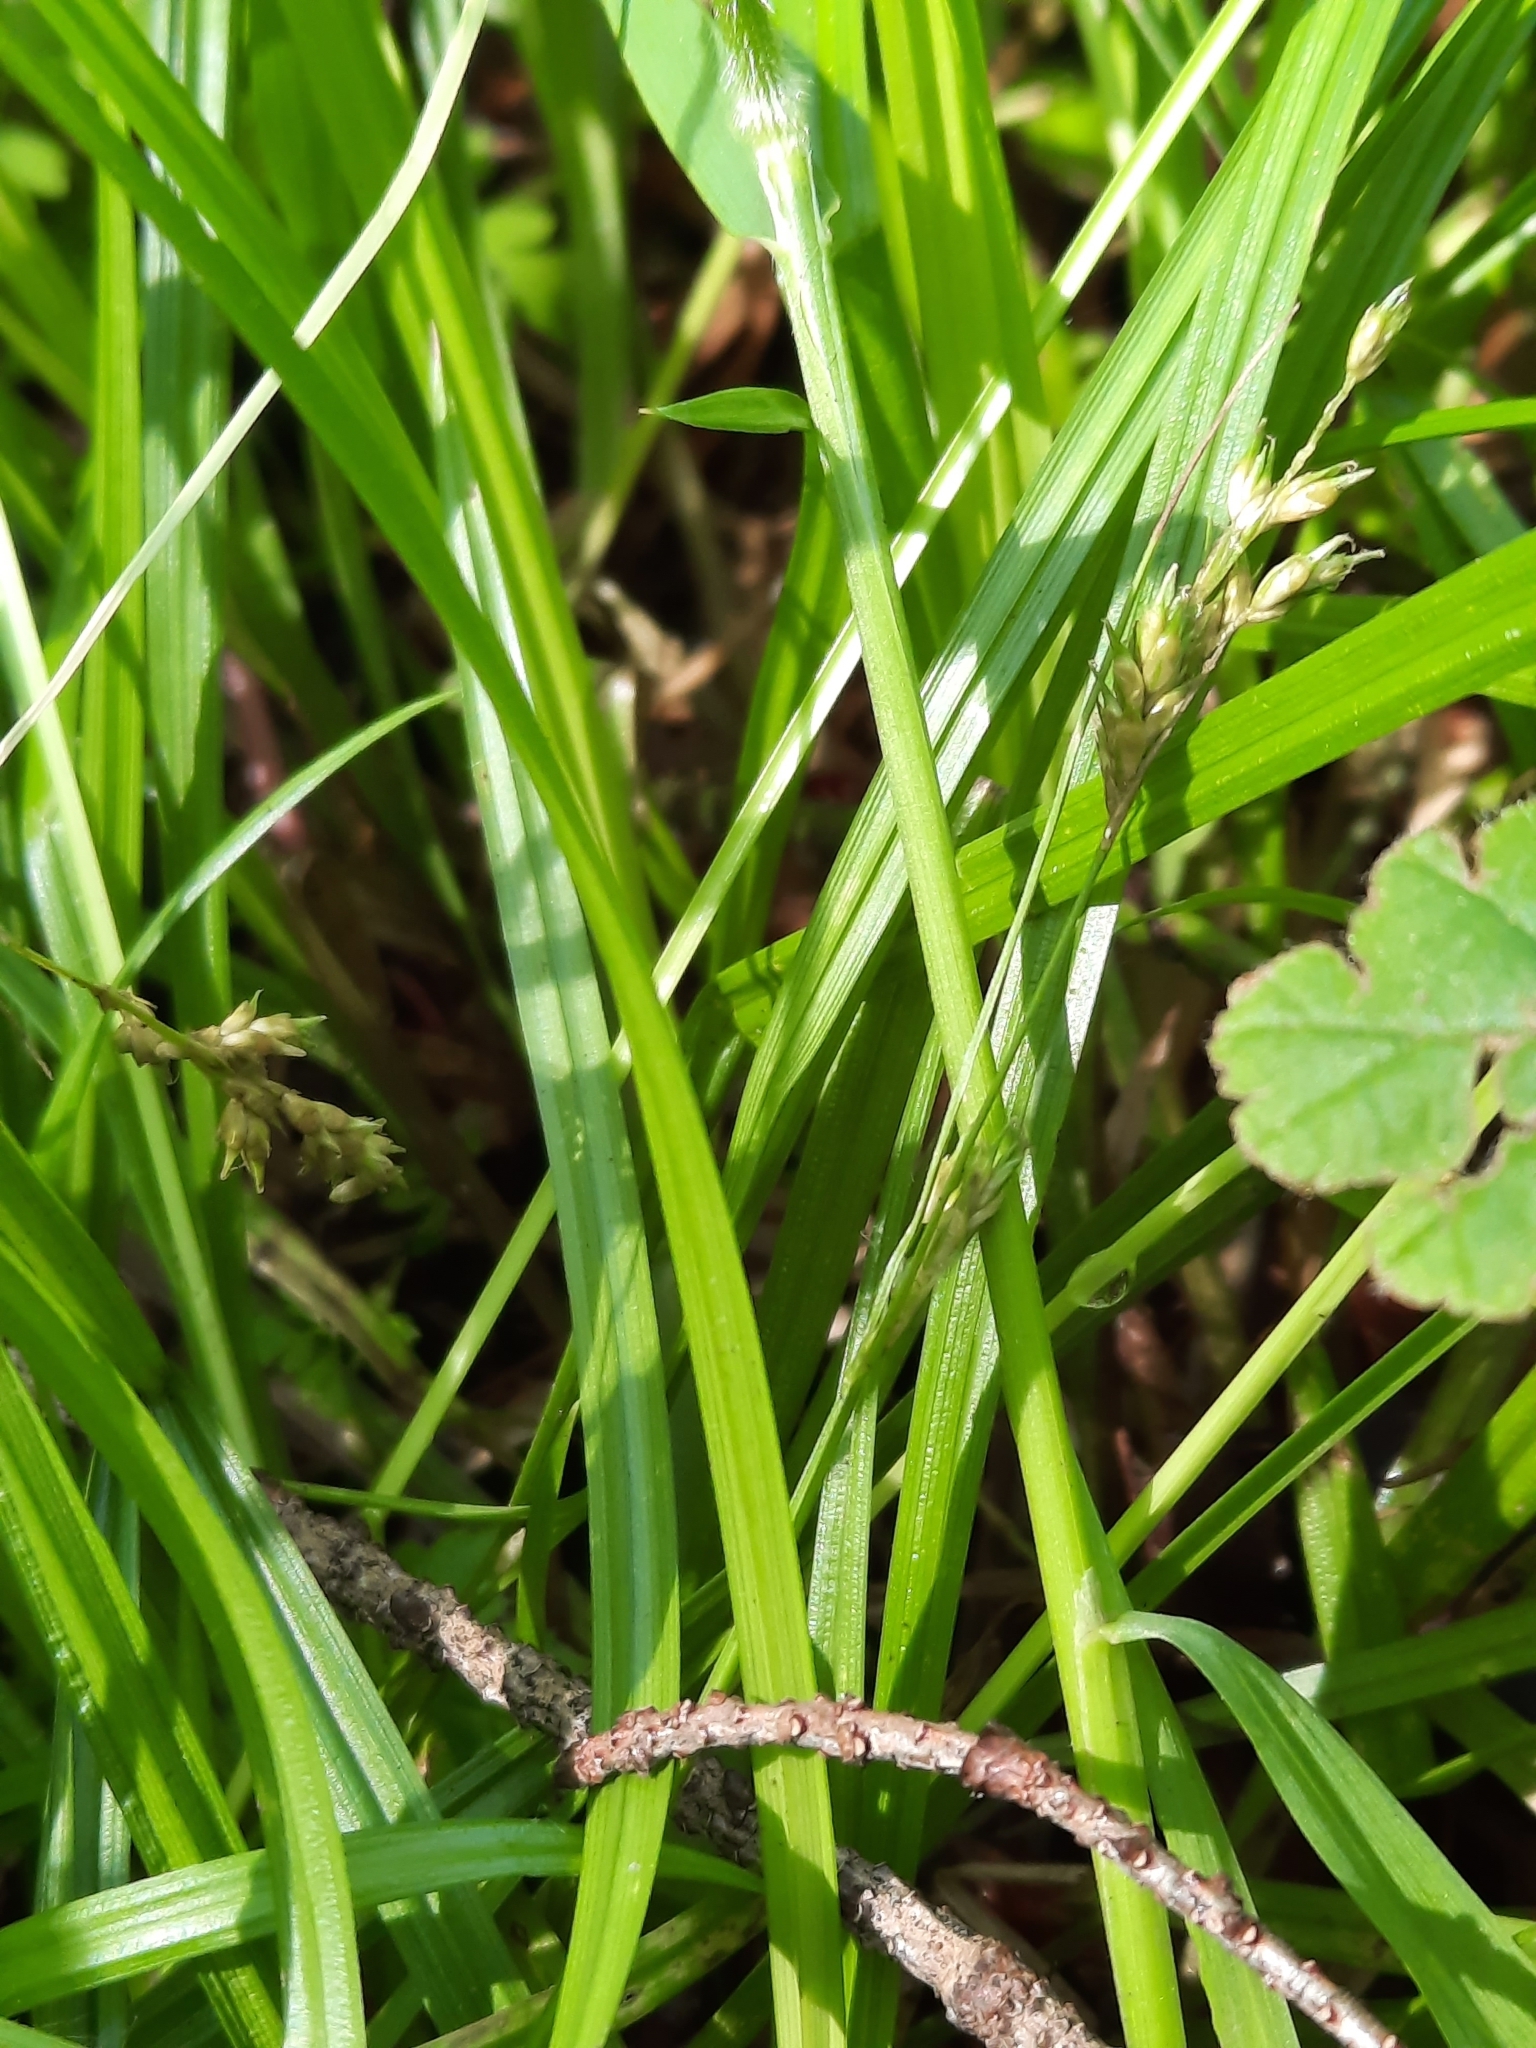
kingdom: Plantae
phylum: Tracheophyta
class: Liliopsida
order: Poales
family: Cyperaceae
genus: Carex
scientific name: Carex leptopoda
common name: Short-scale sedge
